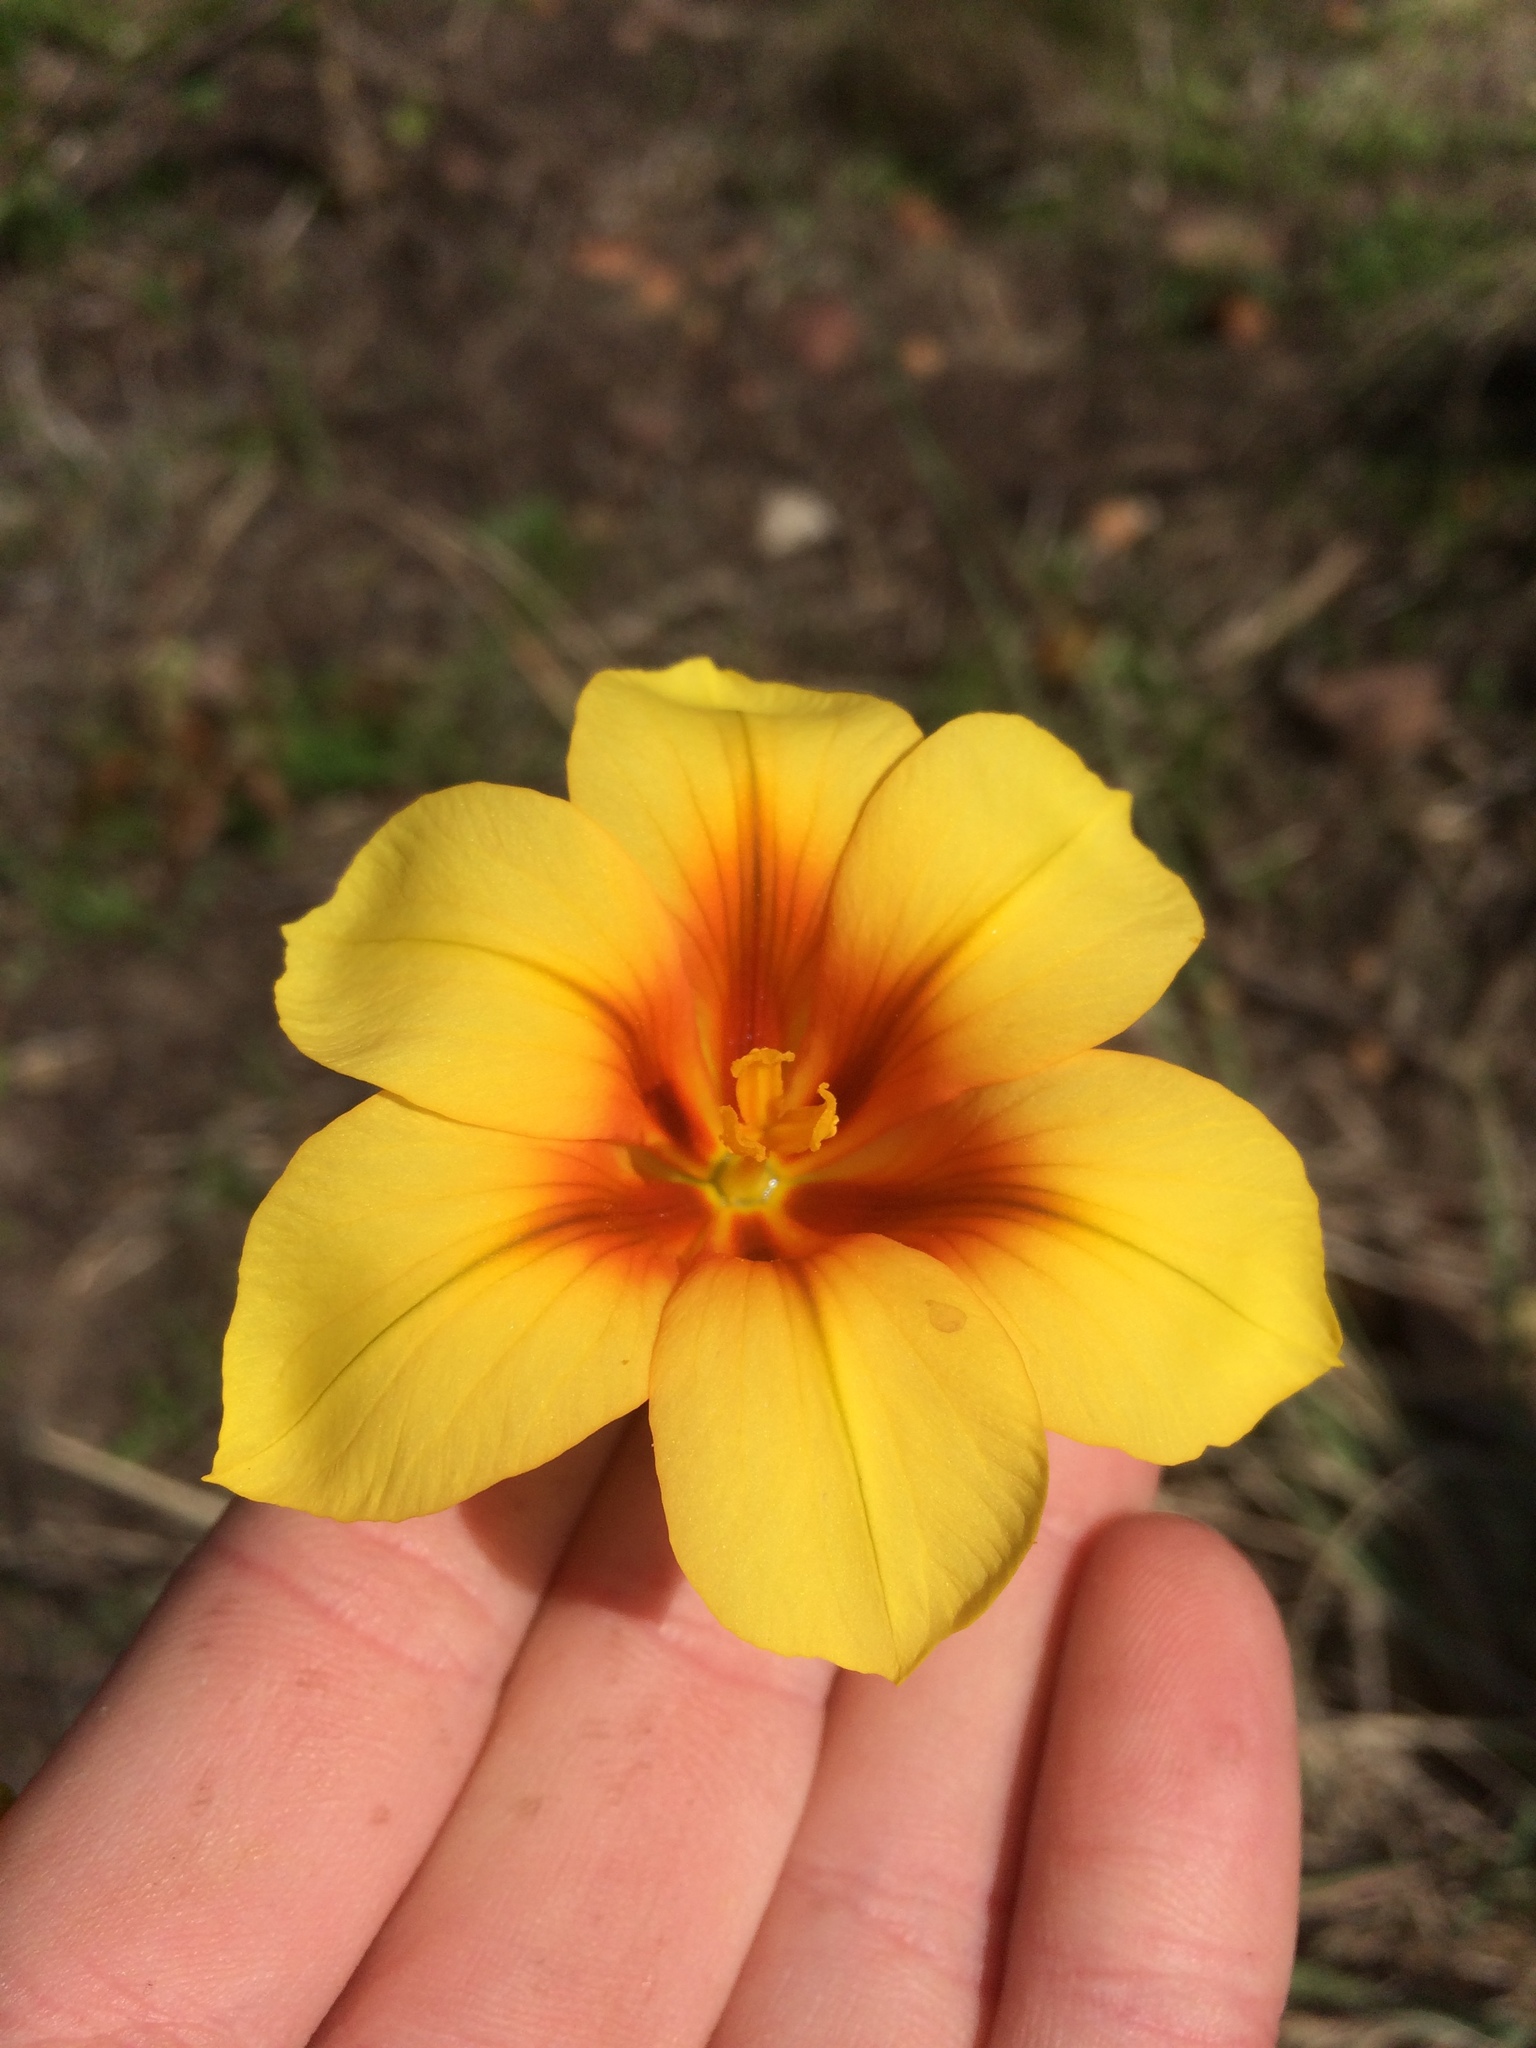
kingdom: Plantae
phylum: Tracheophyta
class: Liliopsida
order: Asparagales
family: Iridaceae
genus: Moraea
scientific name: Moraea ochroleuca
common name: Red tulp
